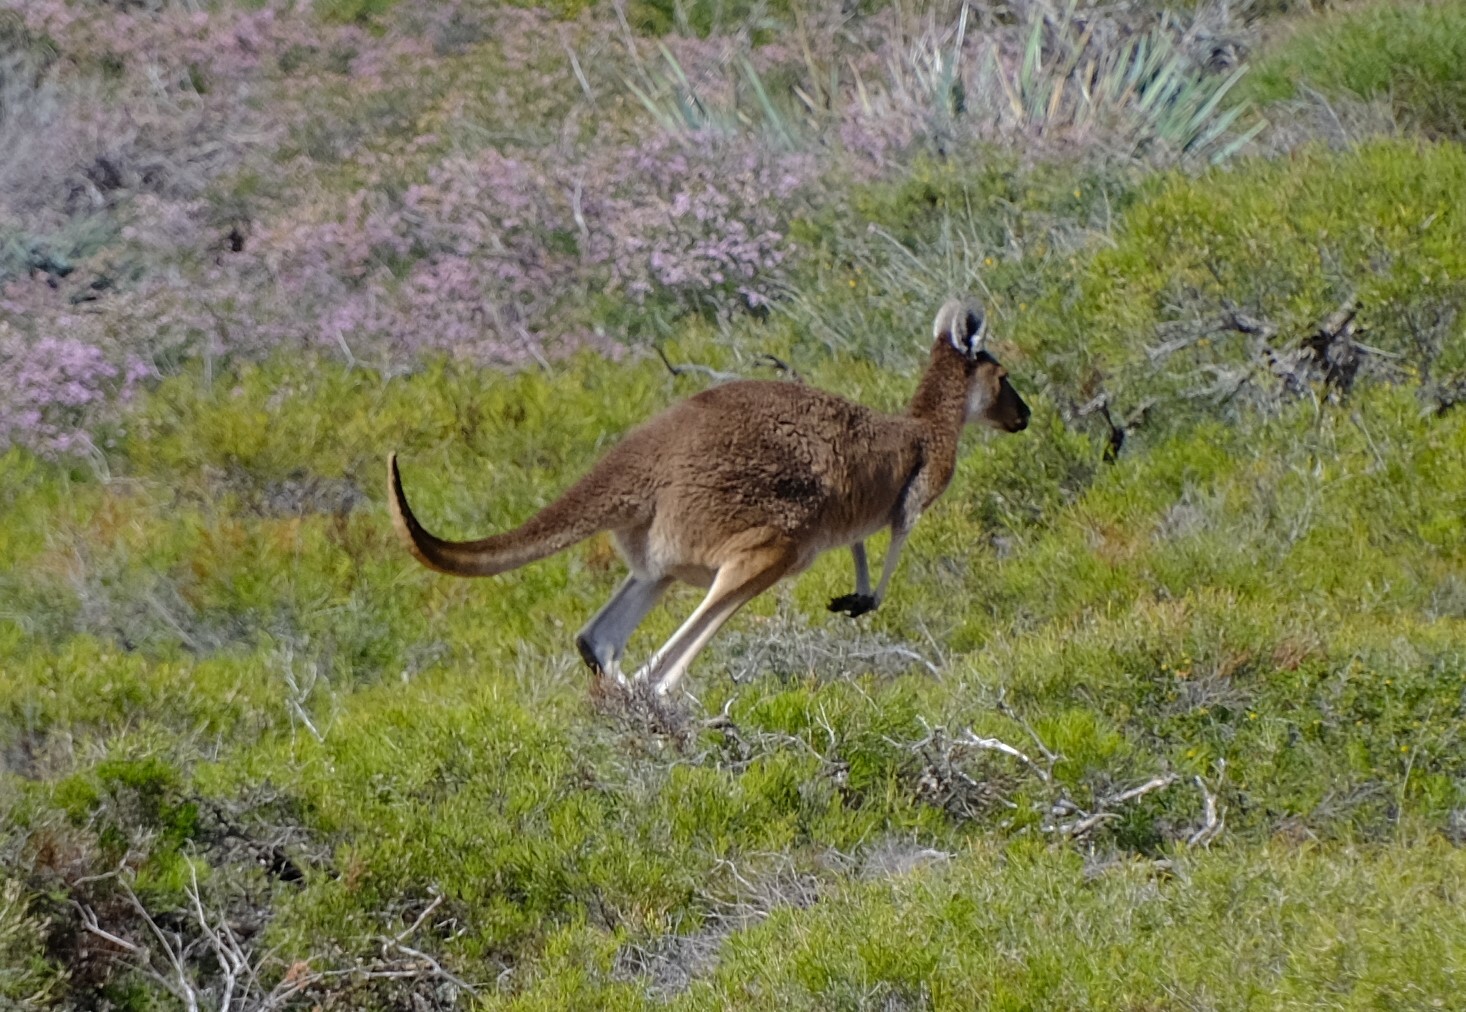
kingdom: Animalia
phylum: Chordata
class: Mammalia
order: Diprotodontia
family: Macropodidae
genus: Macropus
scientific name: Macropus fuliginosus
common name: Western grey kangaroo
